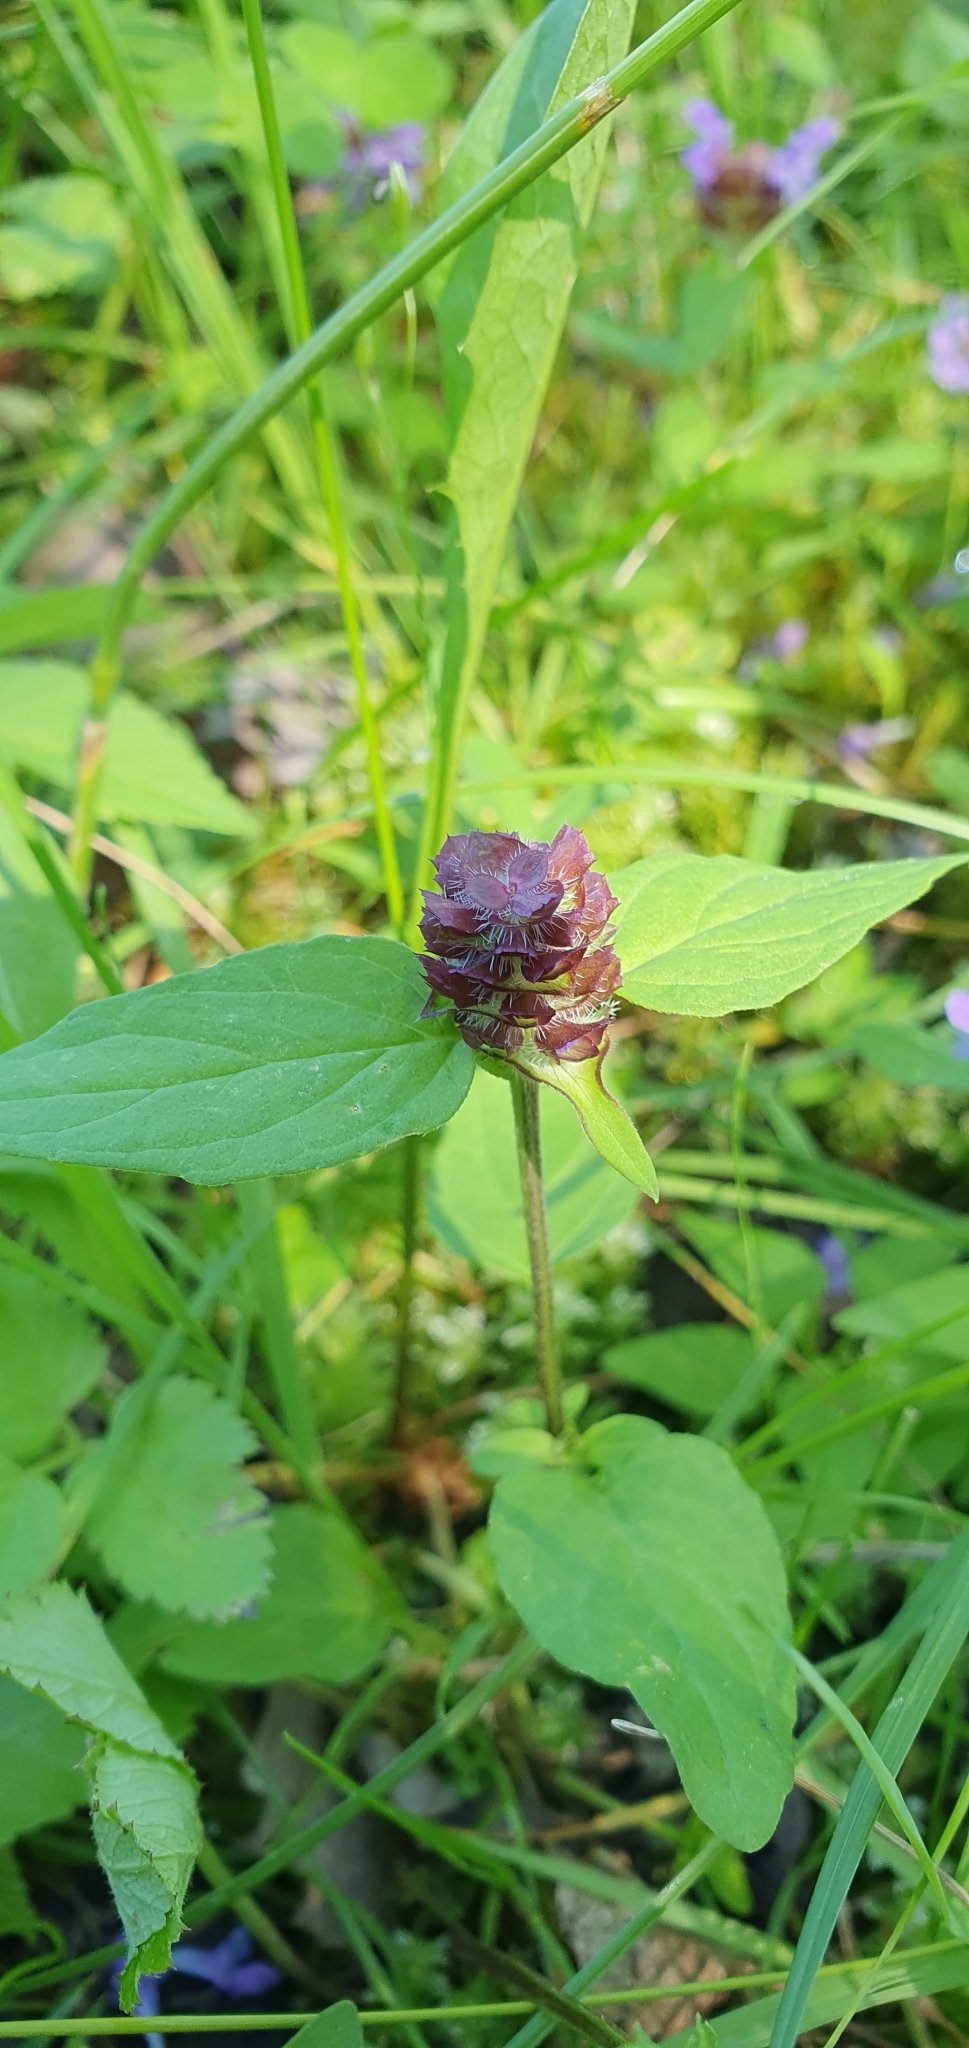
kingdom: Plantae
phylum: Tracheophyta
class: Magnoliopsida
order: Lamiales
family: Lamiaceae
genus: Prunella
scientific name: Prunella vulgaris
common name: Heal-all
